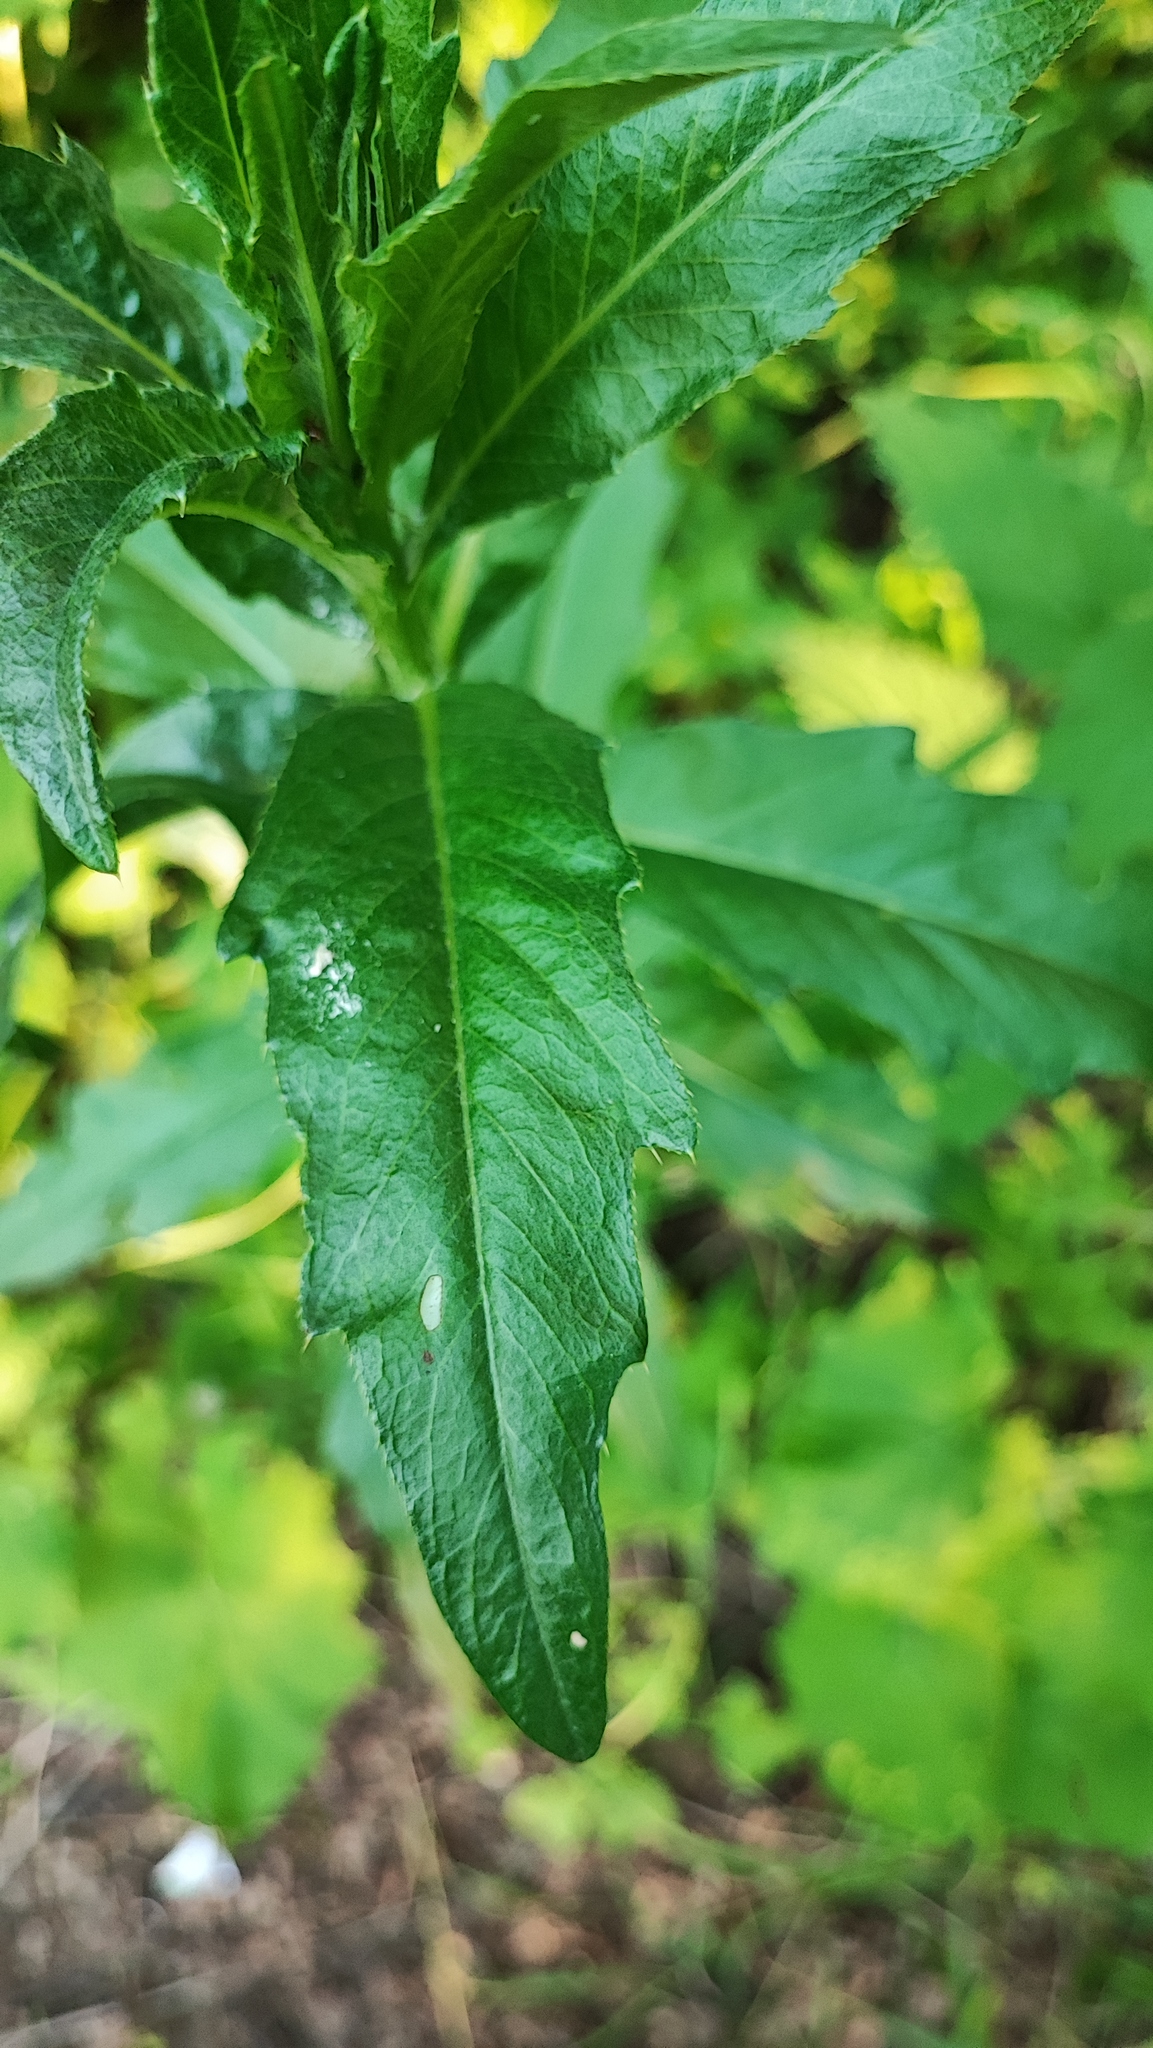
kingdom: Plantae
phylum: Tracheophyta
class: Magnoliopsida
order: Asterales
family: Asteraceae
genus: Cirsium
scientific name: Cirsium arvense
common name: Creeping thistle
